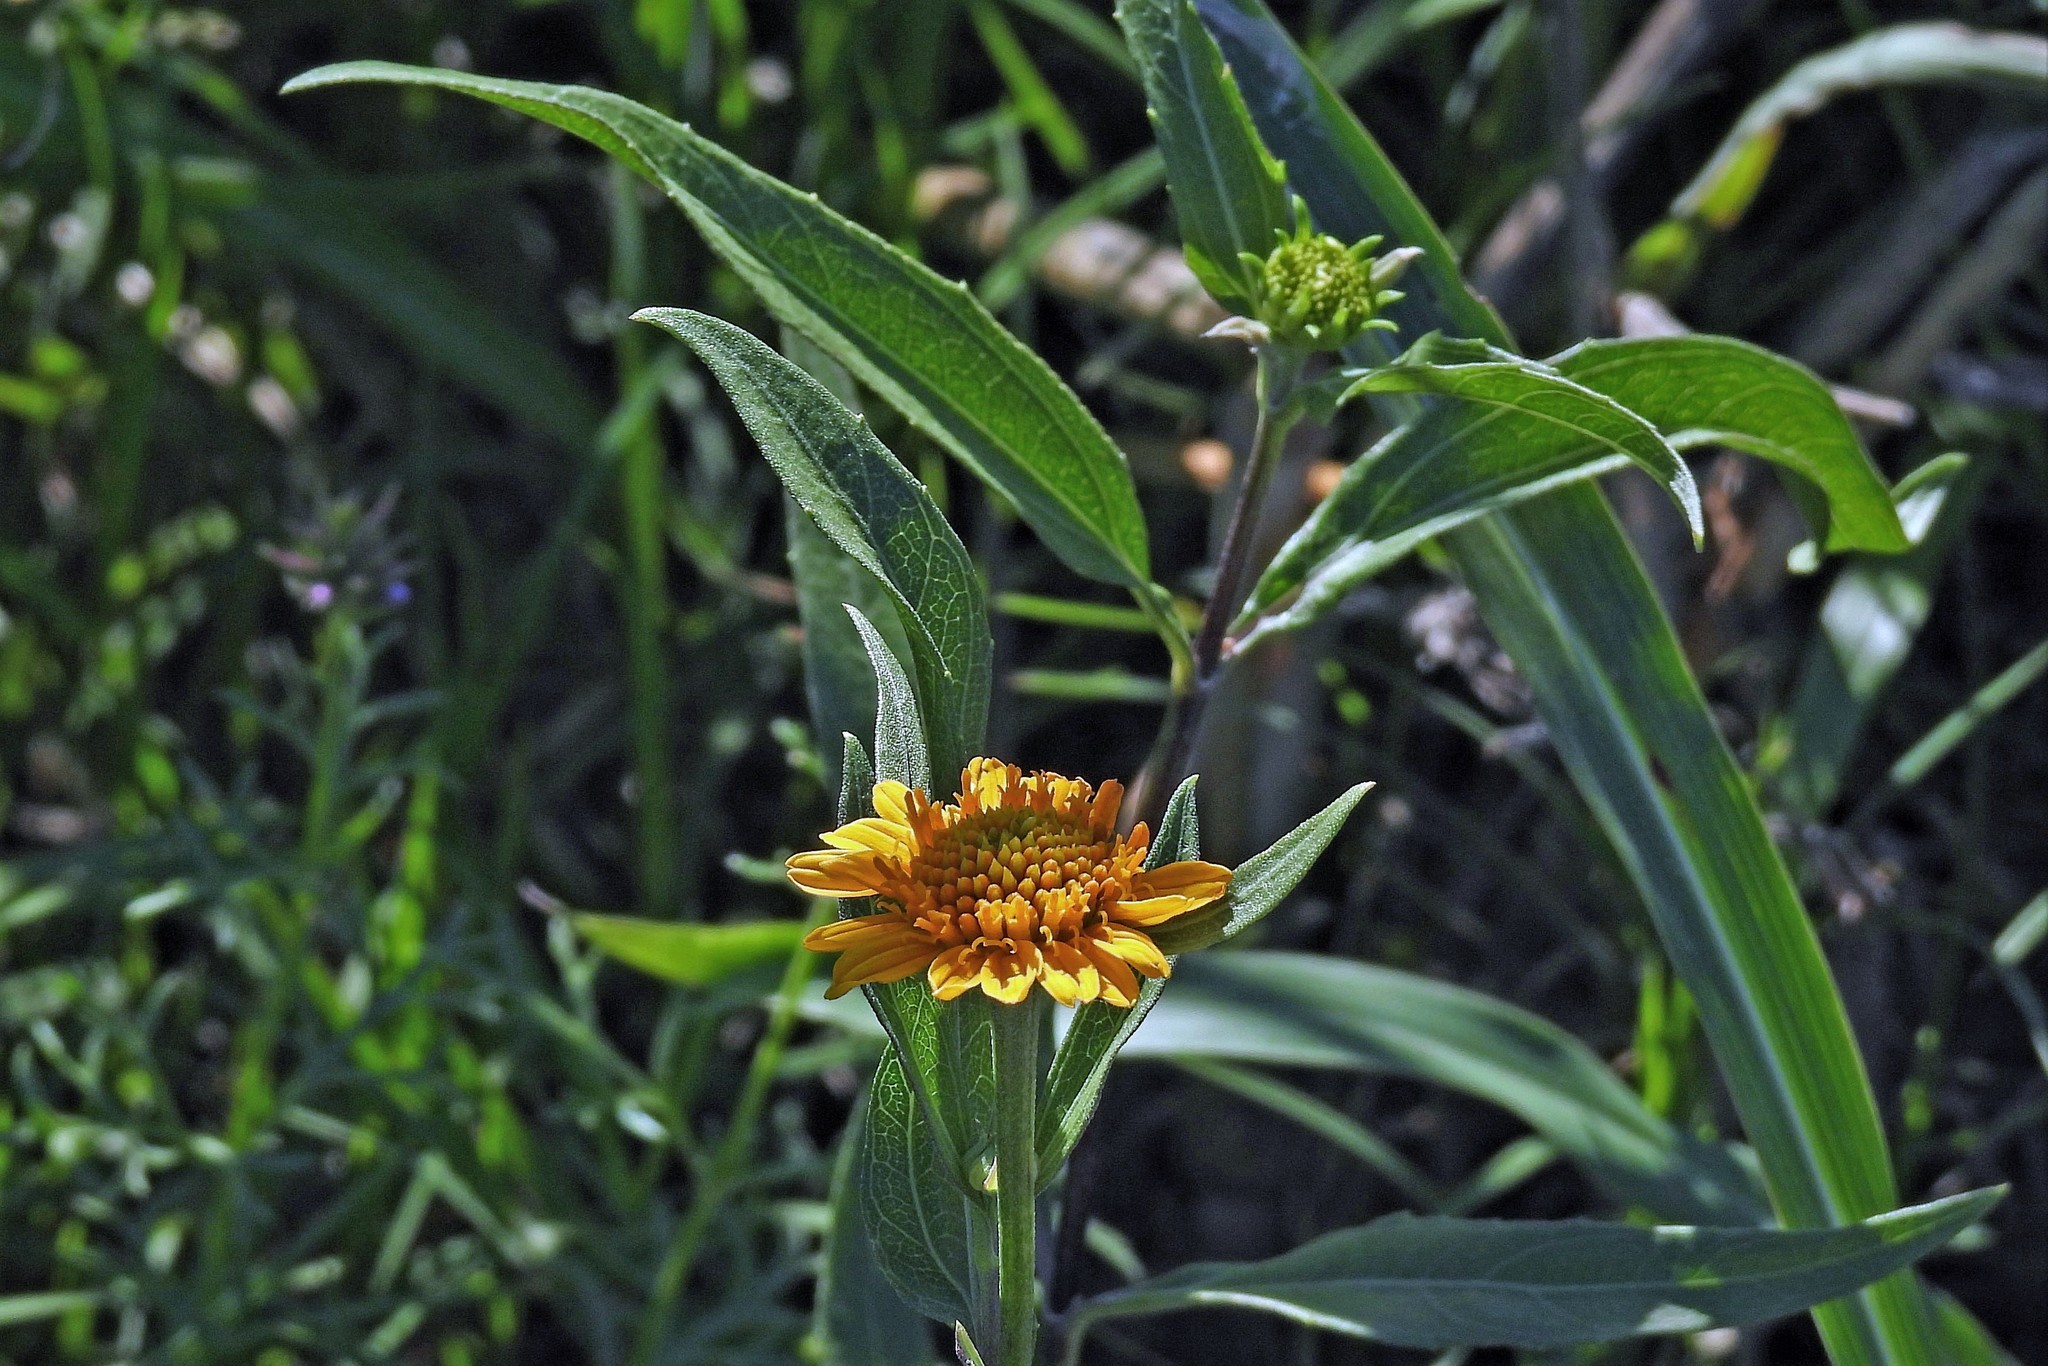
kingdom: Plantae
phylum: Tracheophyta
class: Magnoliopsida
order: Asterales
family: Asteraceae
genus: Pascalia
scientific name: Pascalia glauca
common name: Beach creeping oxeye
